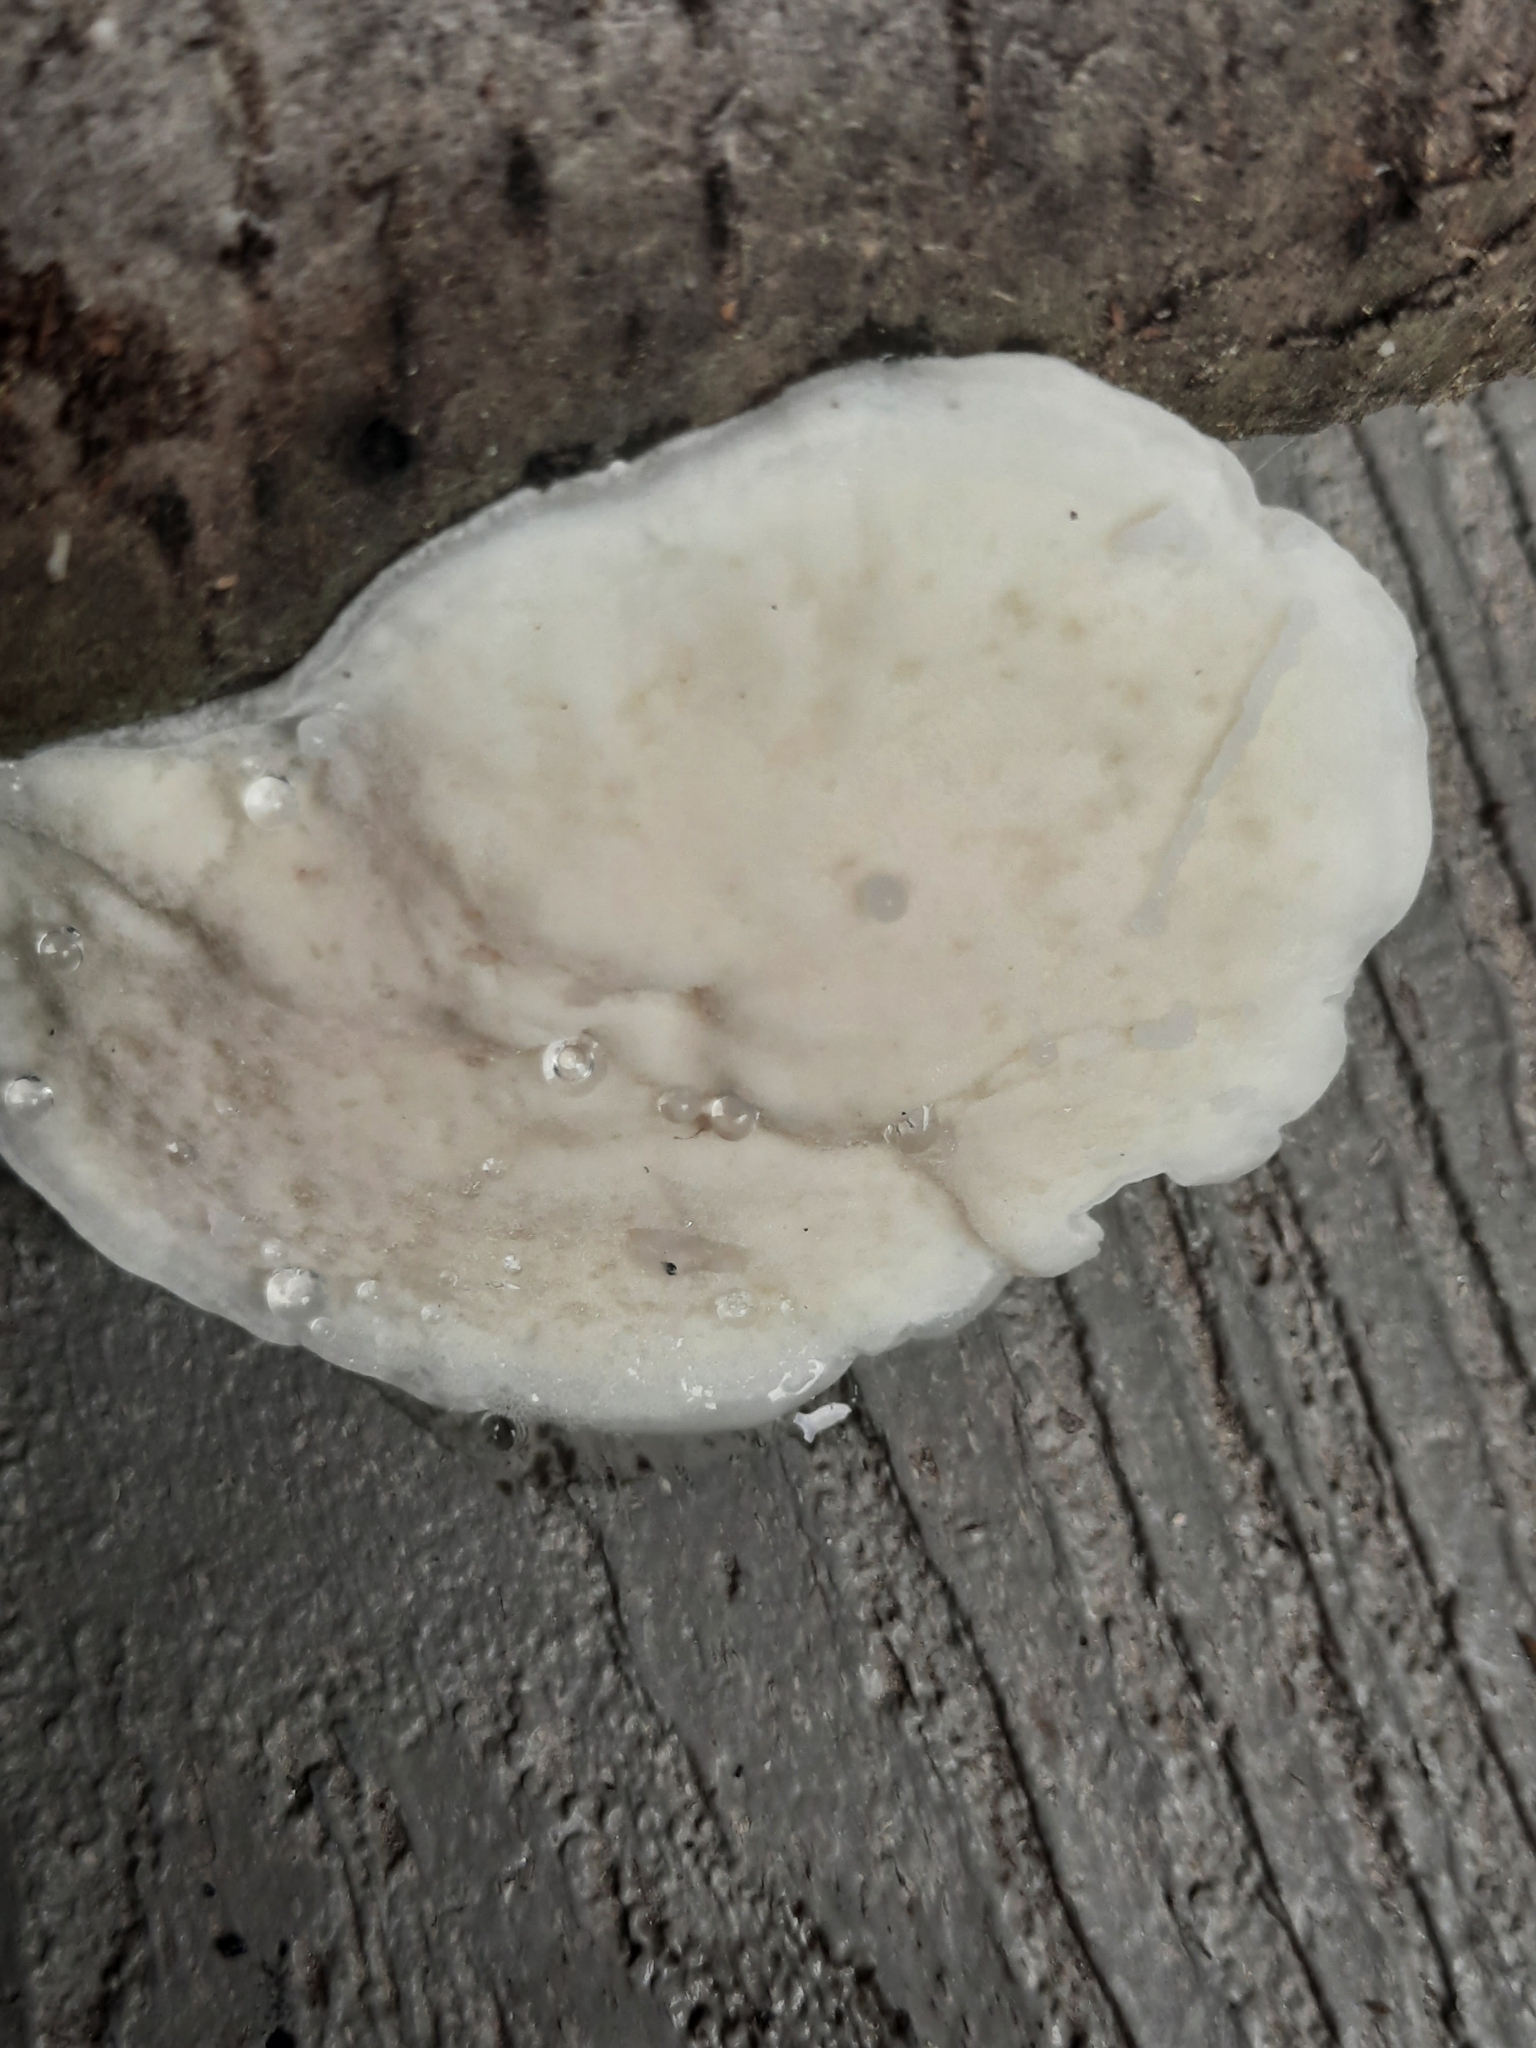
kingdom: Fungi
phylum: Basidiomycota
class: Agaricomycetes
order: Polyporales
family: Incrustoporiaceae
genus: Tyromyces
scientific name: Tyromyces chioneus
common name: White cheese polypore
